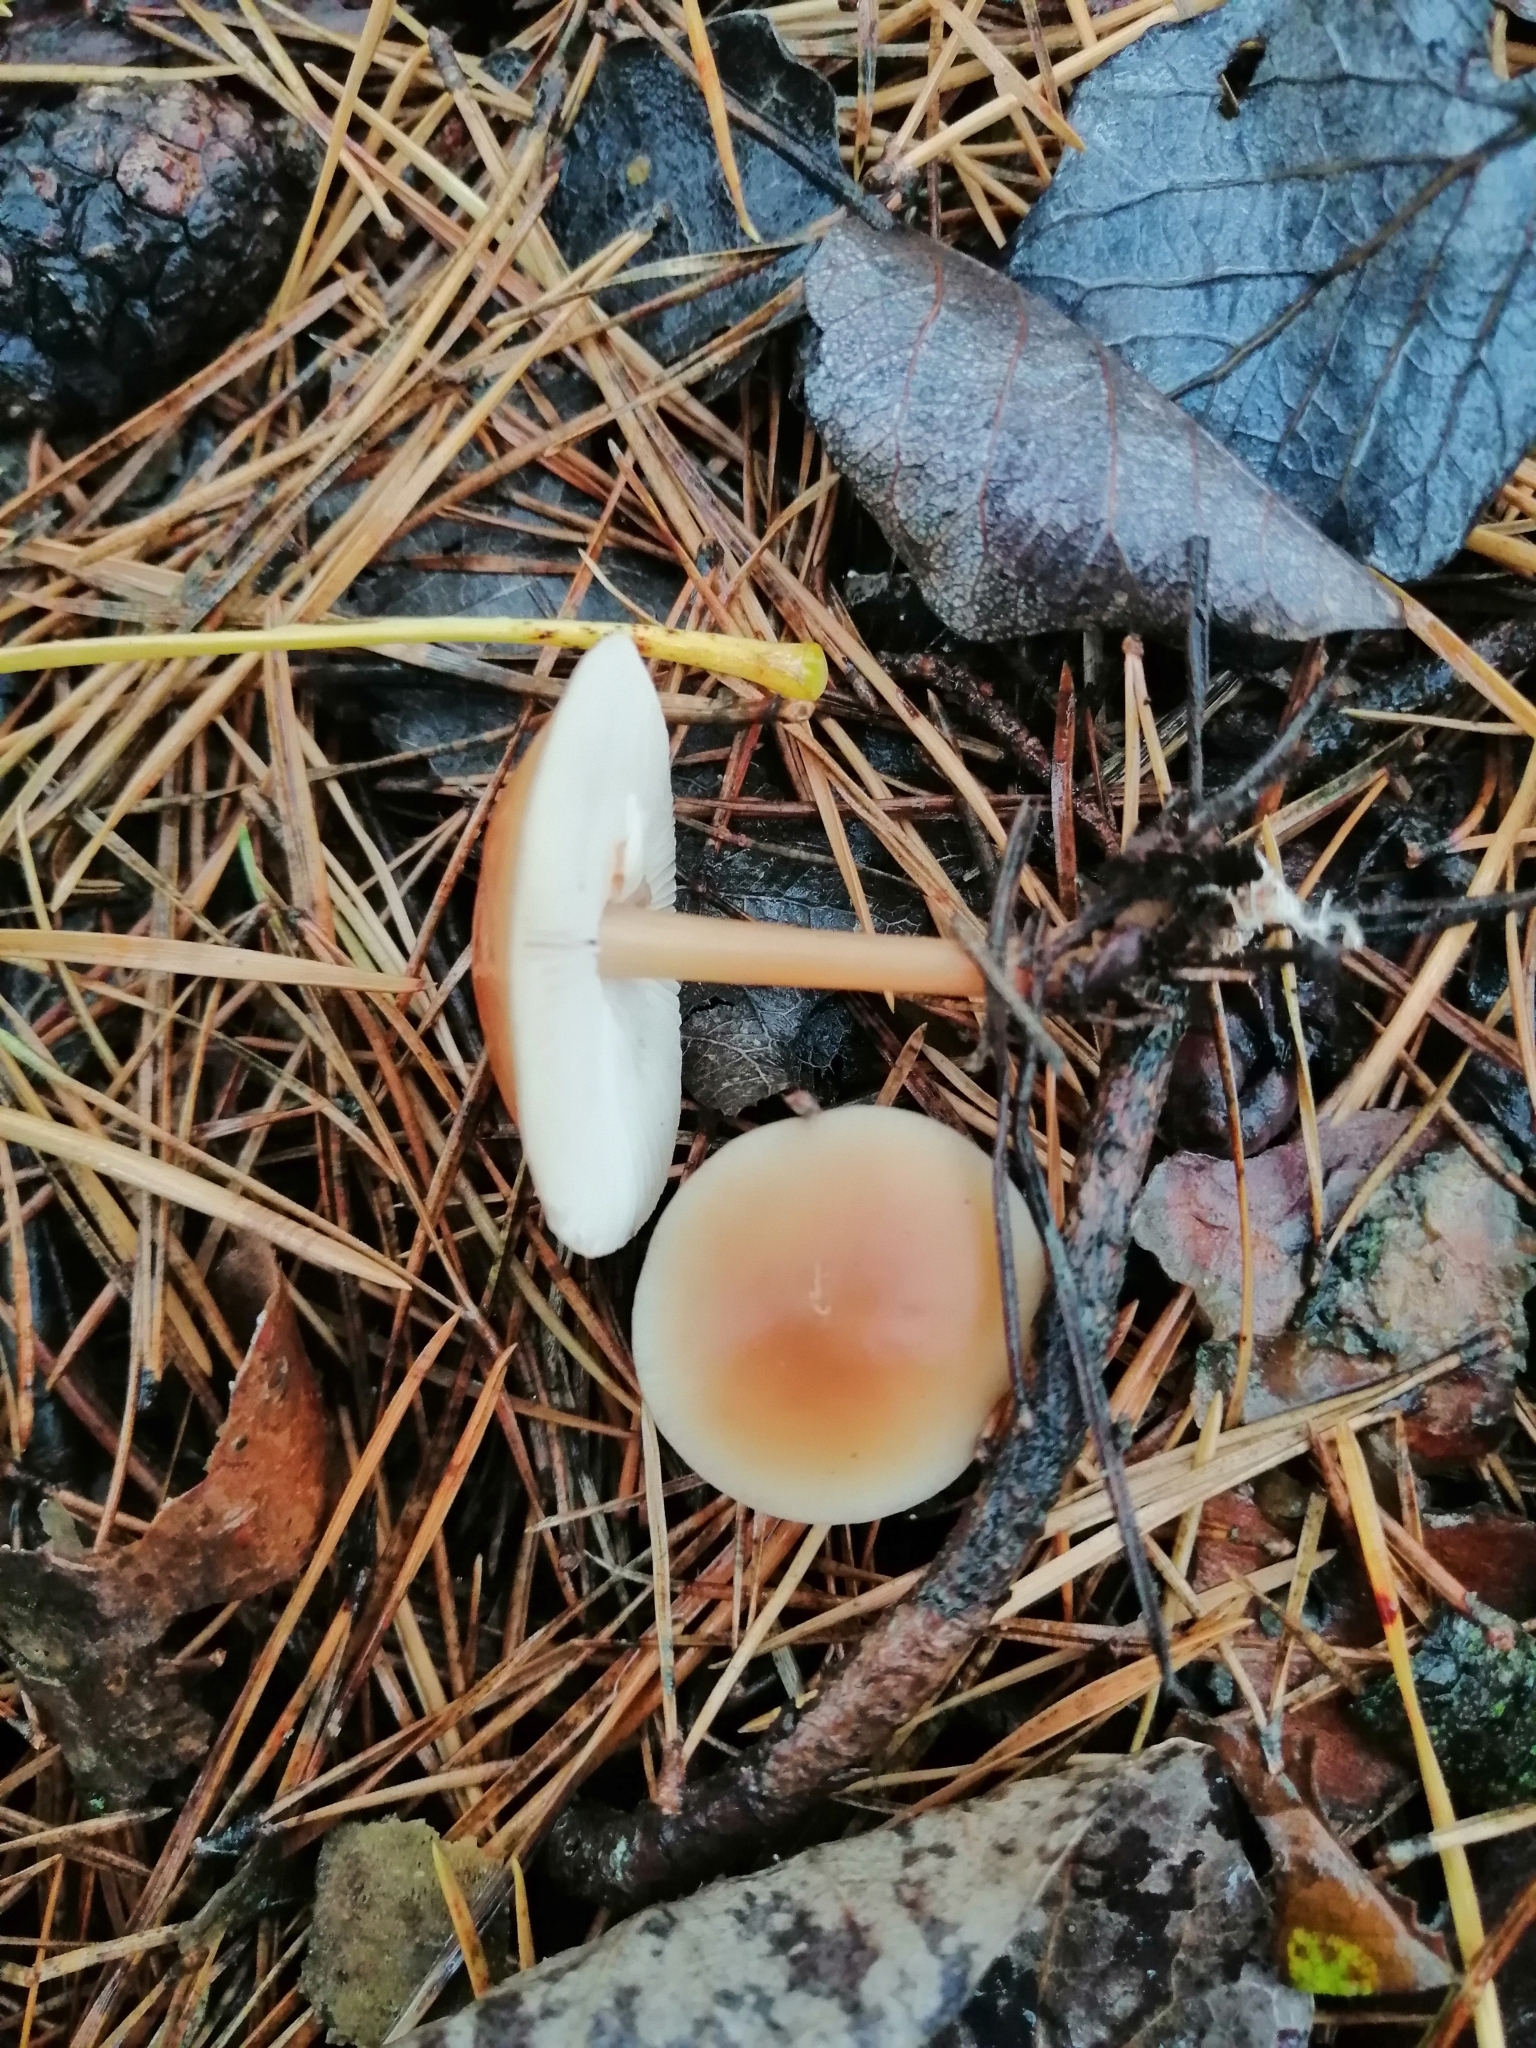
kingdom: Fungi
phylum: Basidiomycota
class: Agaricomycetes
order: Agaricales
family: Omphalotaceae
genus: Gymnopus
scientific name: Gymnopus dryophilus
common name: Penny top
